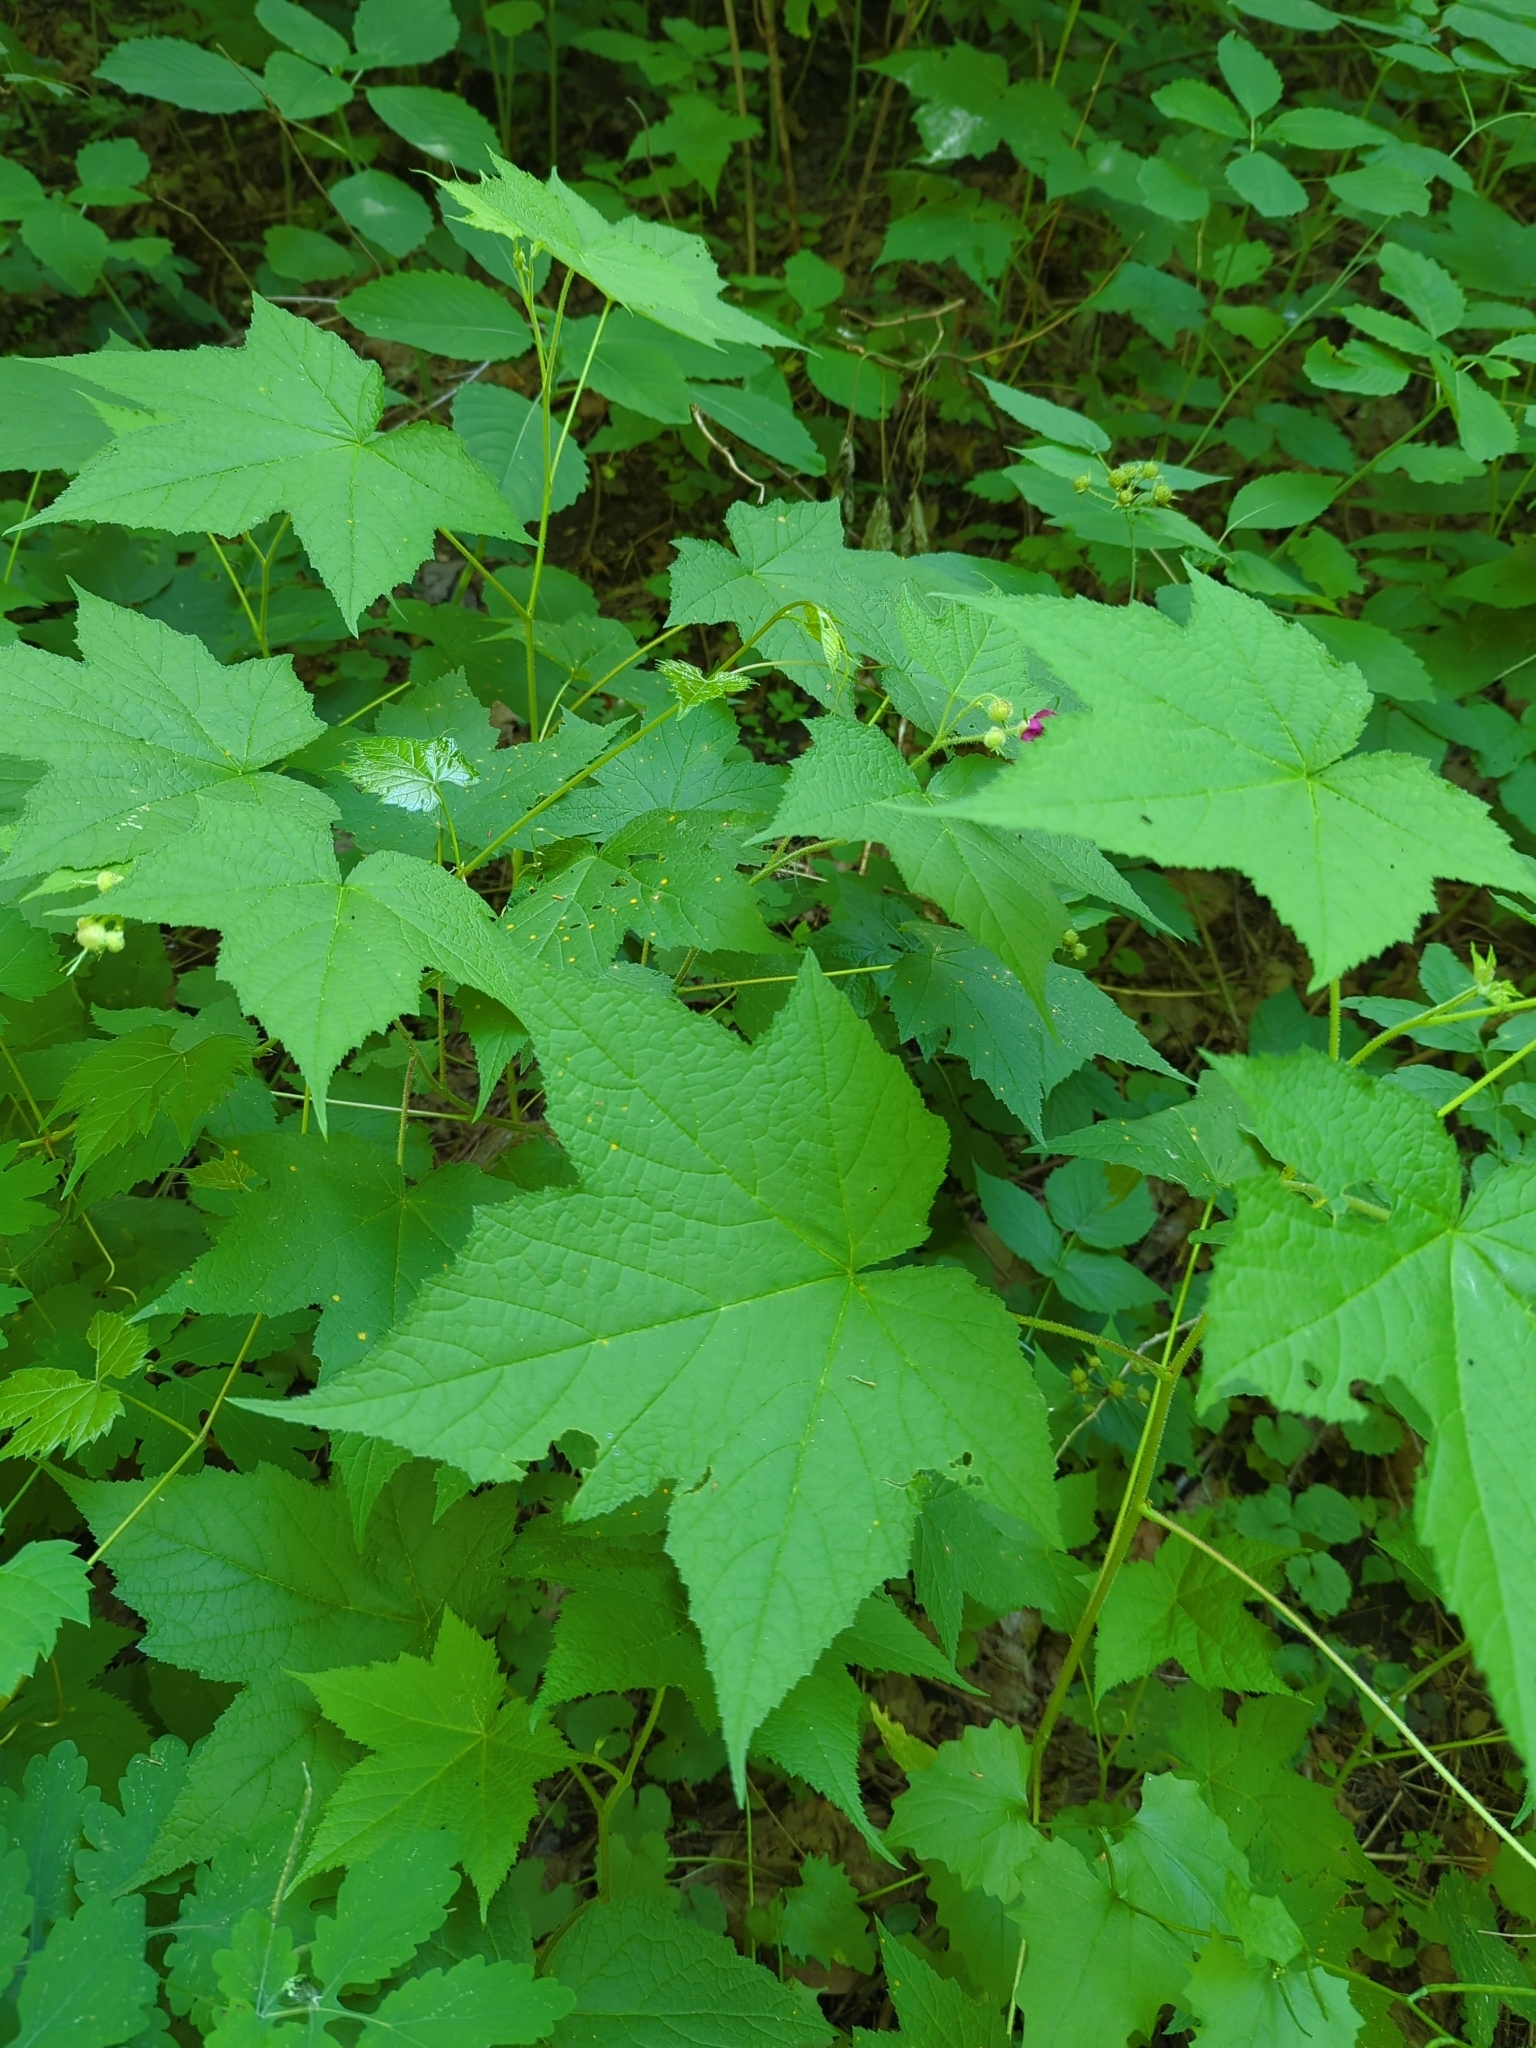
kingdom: Plantae
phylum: Tracheophyta
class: Magnoliopsida
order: Rosales
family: Rosaceae
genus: Rubus
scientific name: Rubus odoratus
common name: Purple-flowered raspberry
